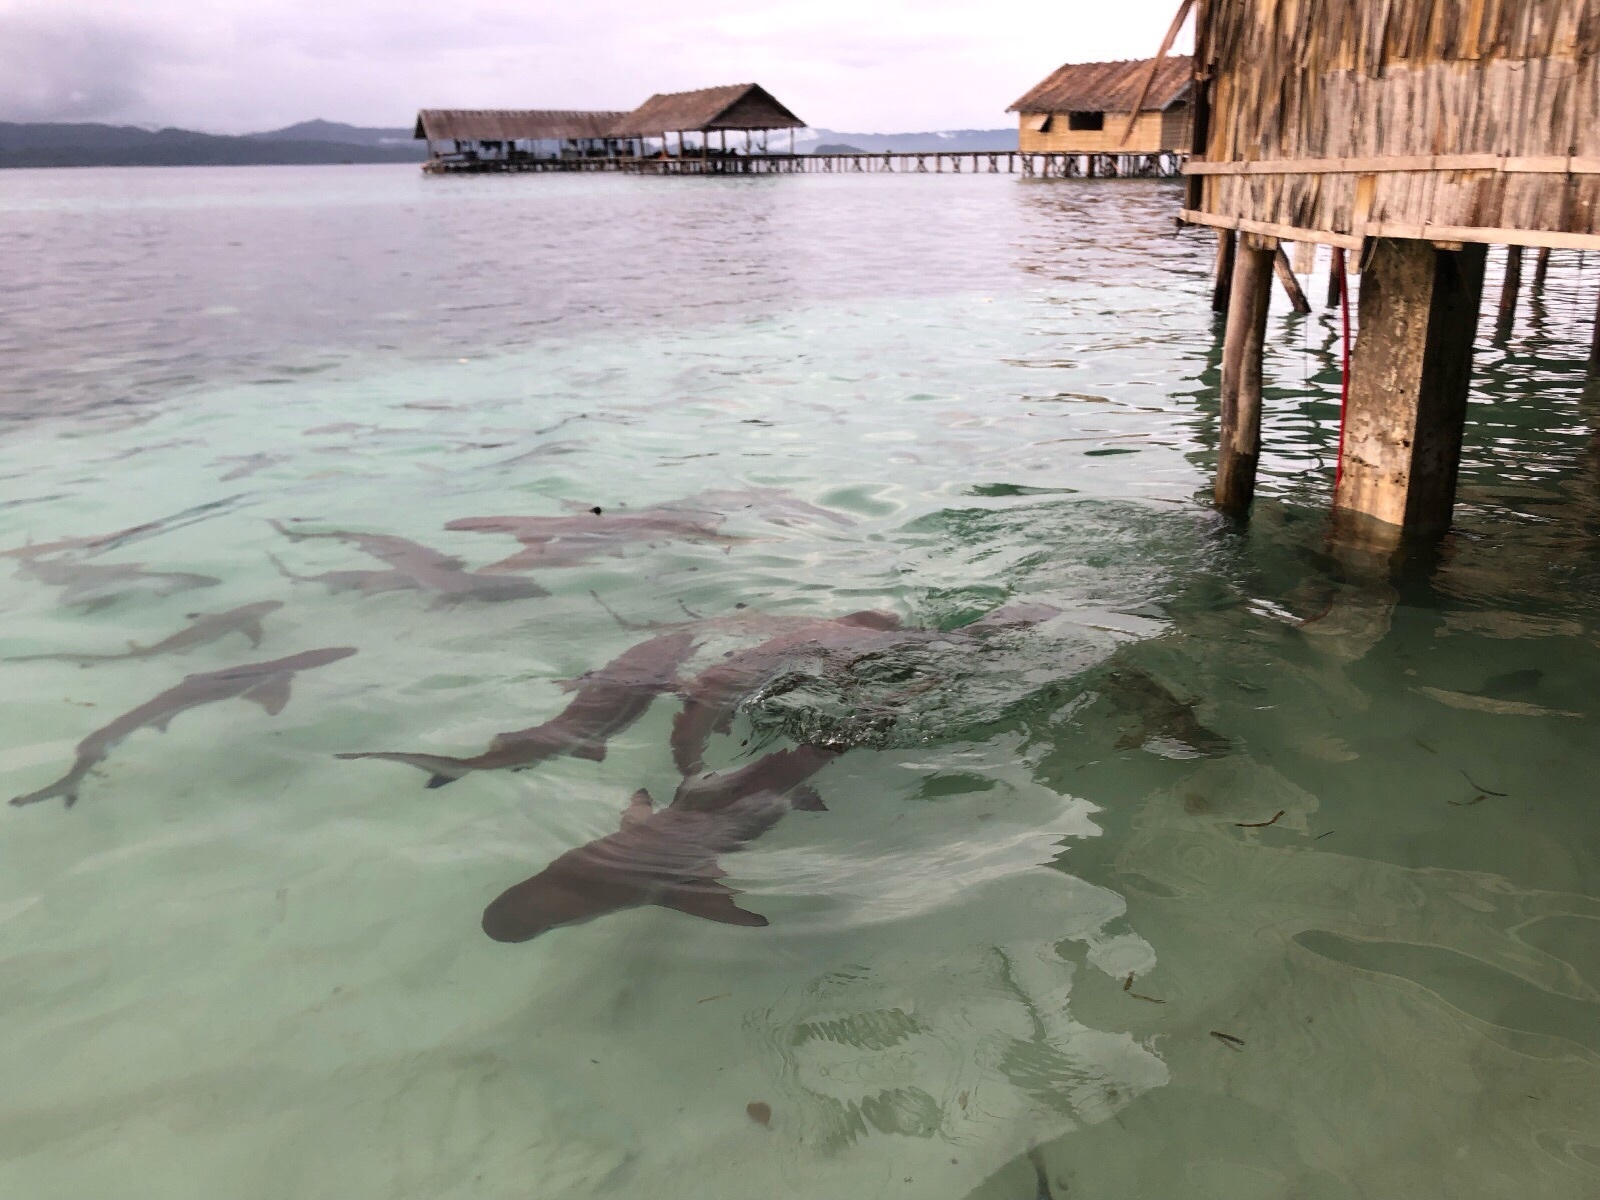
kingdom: Animalia
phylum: Chordata
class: Elasmobranchii
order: Carcharhiniformes
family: Carcharhinidae
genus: Carcharhinus
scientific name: Carcharhinus melanopterus
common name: Blacktip reef shark
